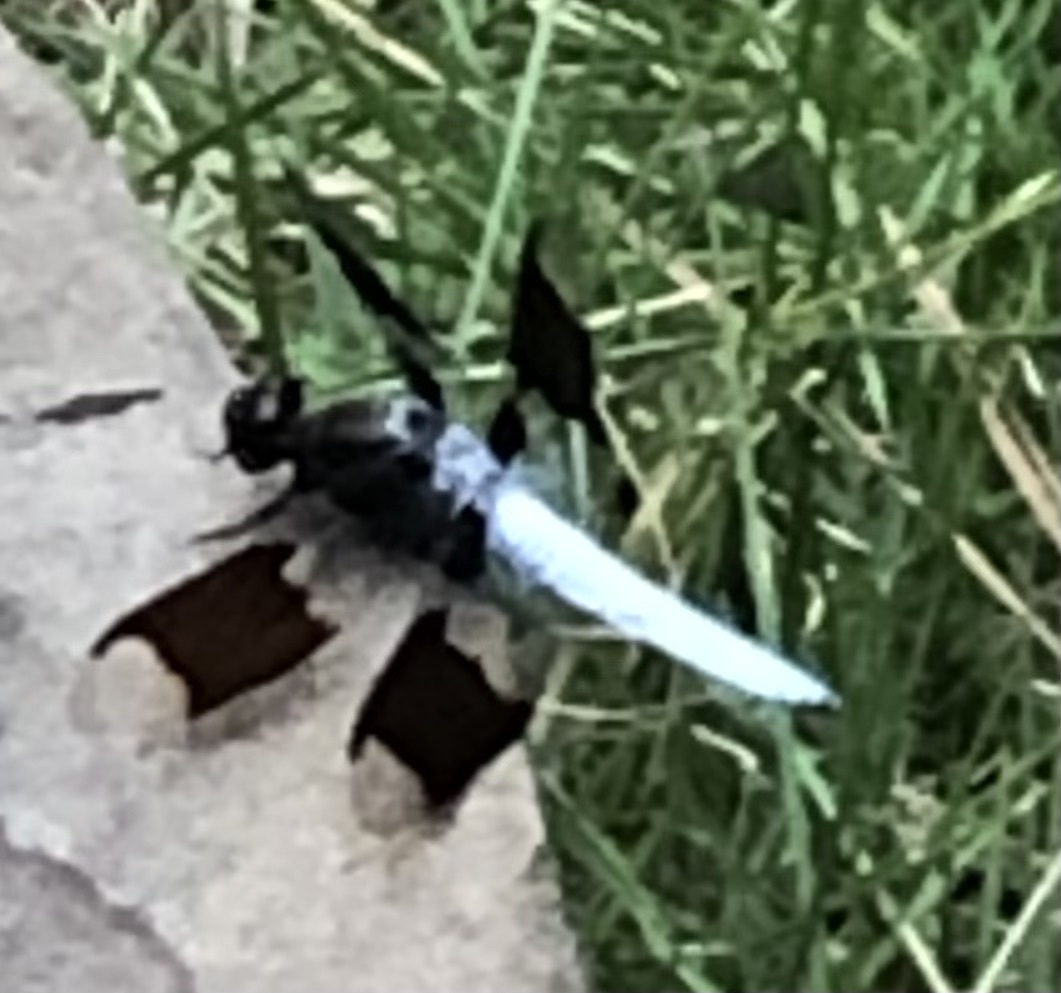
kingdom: Animalia
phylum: Arthropoda
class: Insecta
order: Odonata
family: Libellulidae
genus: Plathemis
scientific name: Plathemis lydia
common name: Common whitetail
